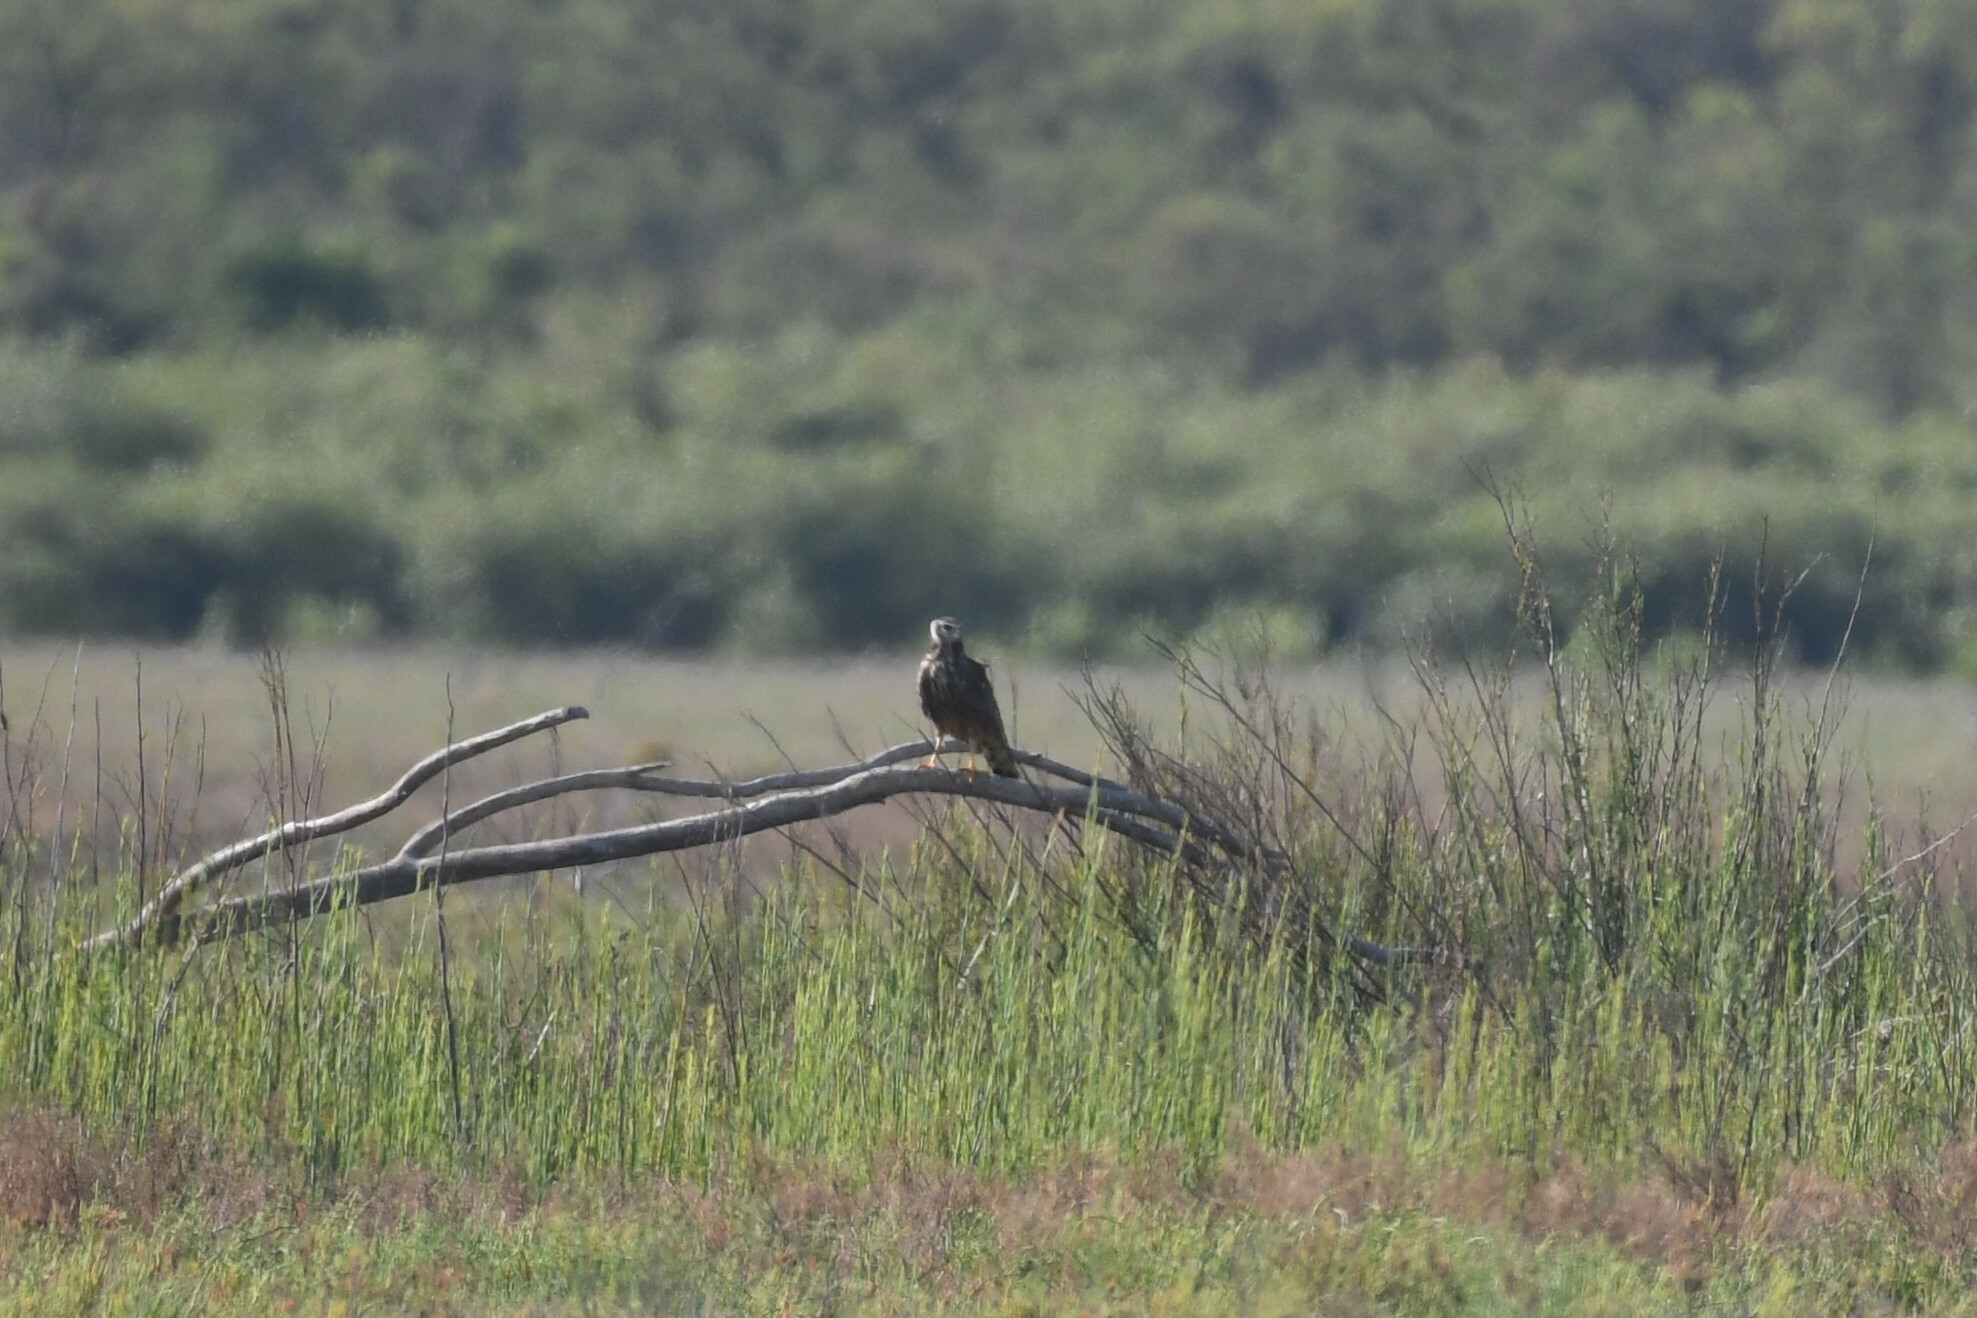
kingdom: Animalia
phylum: Chordata
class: Aves
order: Accipitriformes
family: Accipitridae
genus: Circus
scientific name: Circus buffoni
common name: Long-winged harrier
